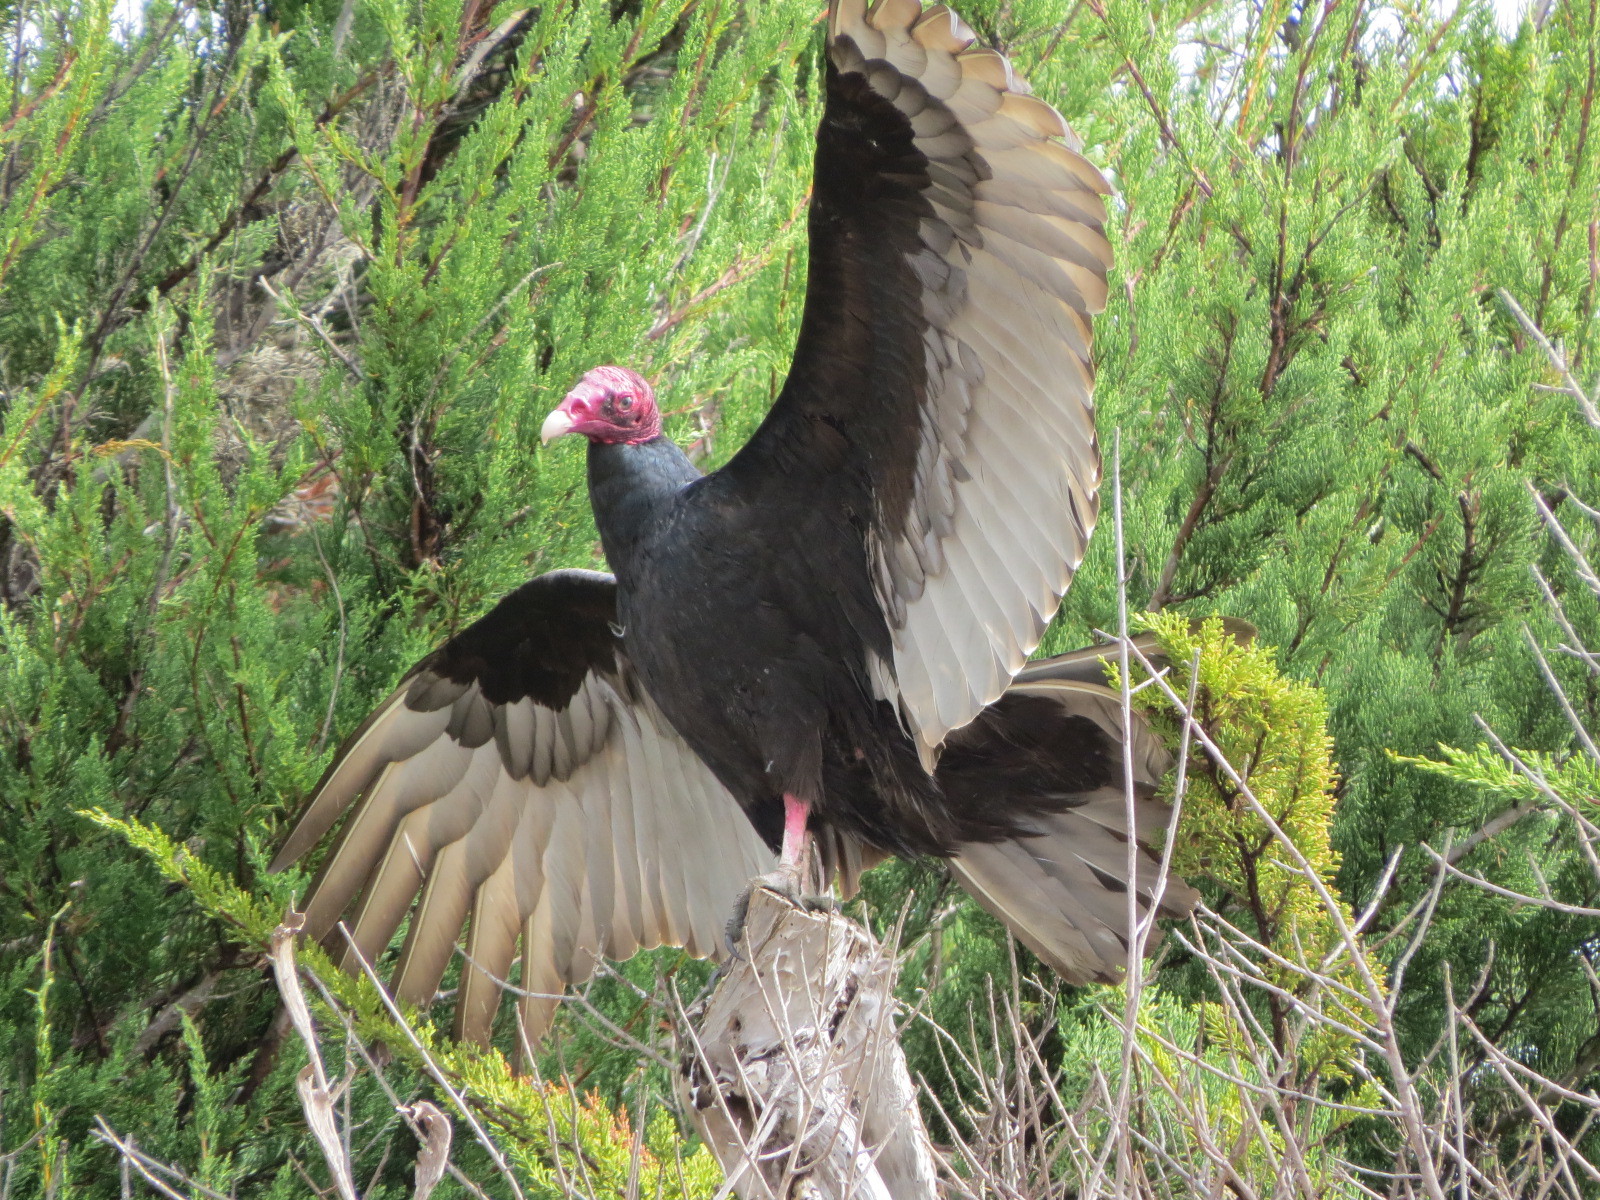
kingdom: Animalia
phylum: Chordata
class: Aves
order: Accipitriformes
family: Cathartidae
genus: Cathartes
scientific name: Cathartes aura
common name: Turkey vulture
